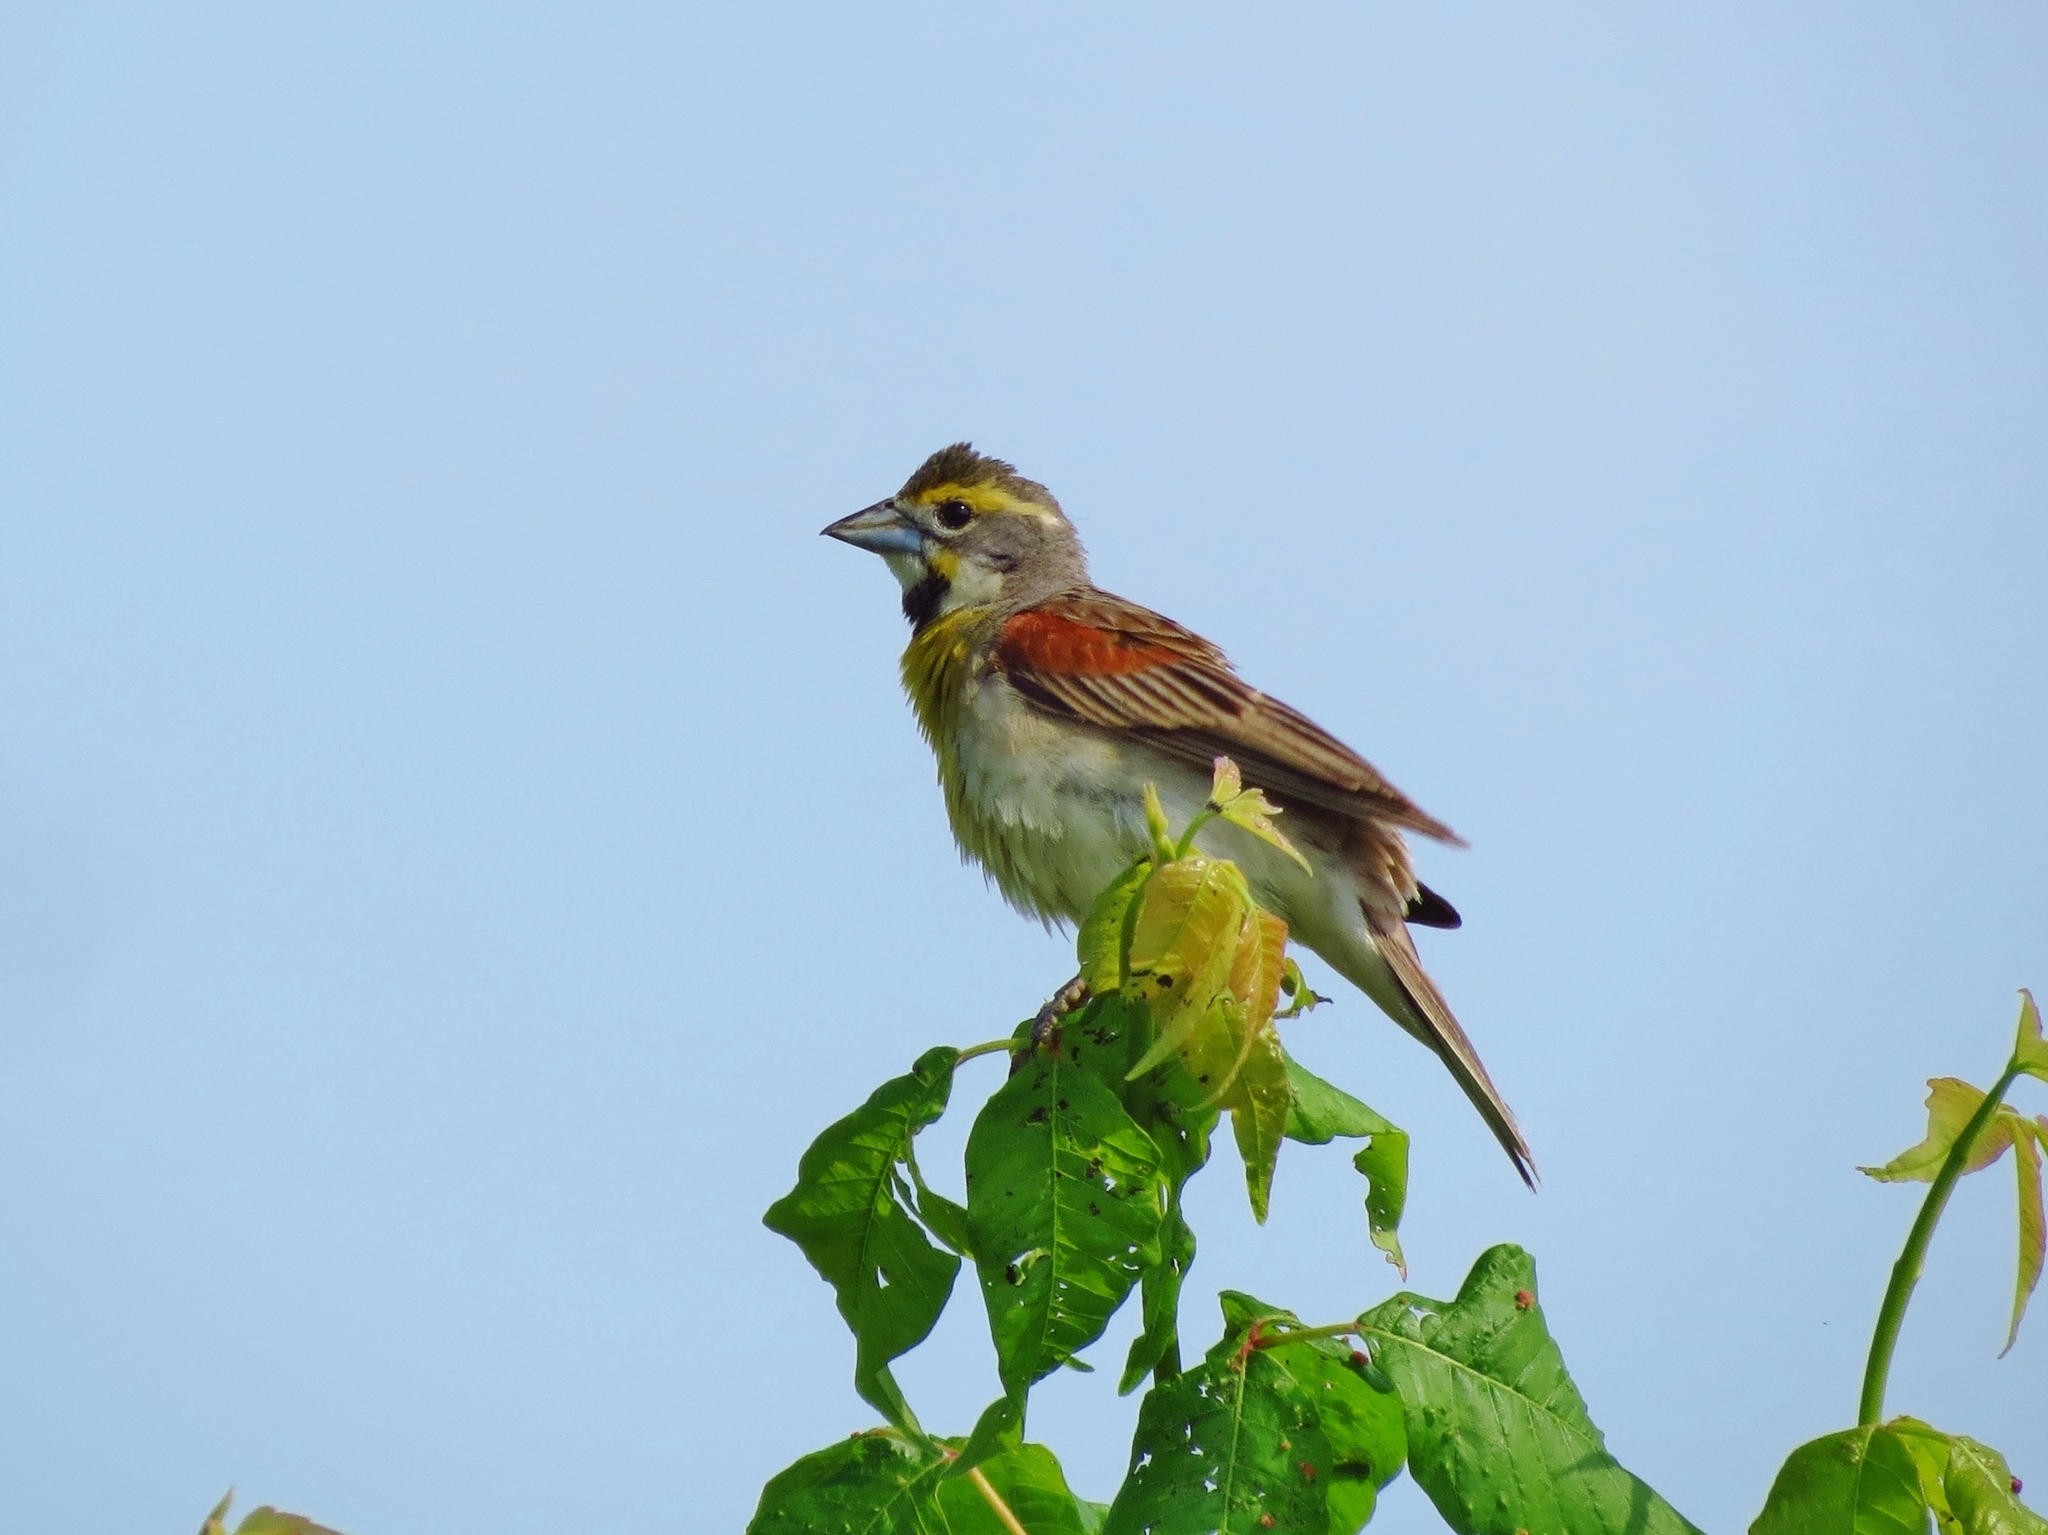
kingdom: Animalia
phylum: Chordata
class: Aves
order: Passeriformes
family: Cardinalidae
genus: Spiza
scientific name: Spiza americana
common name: Dickcissel
